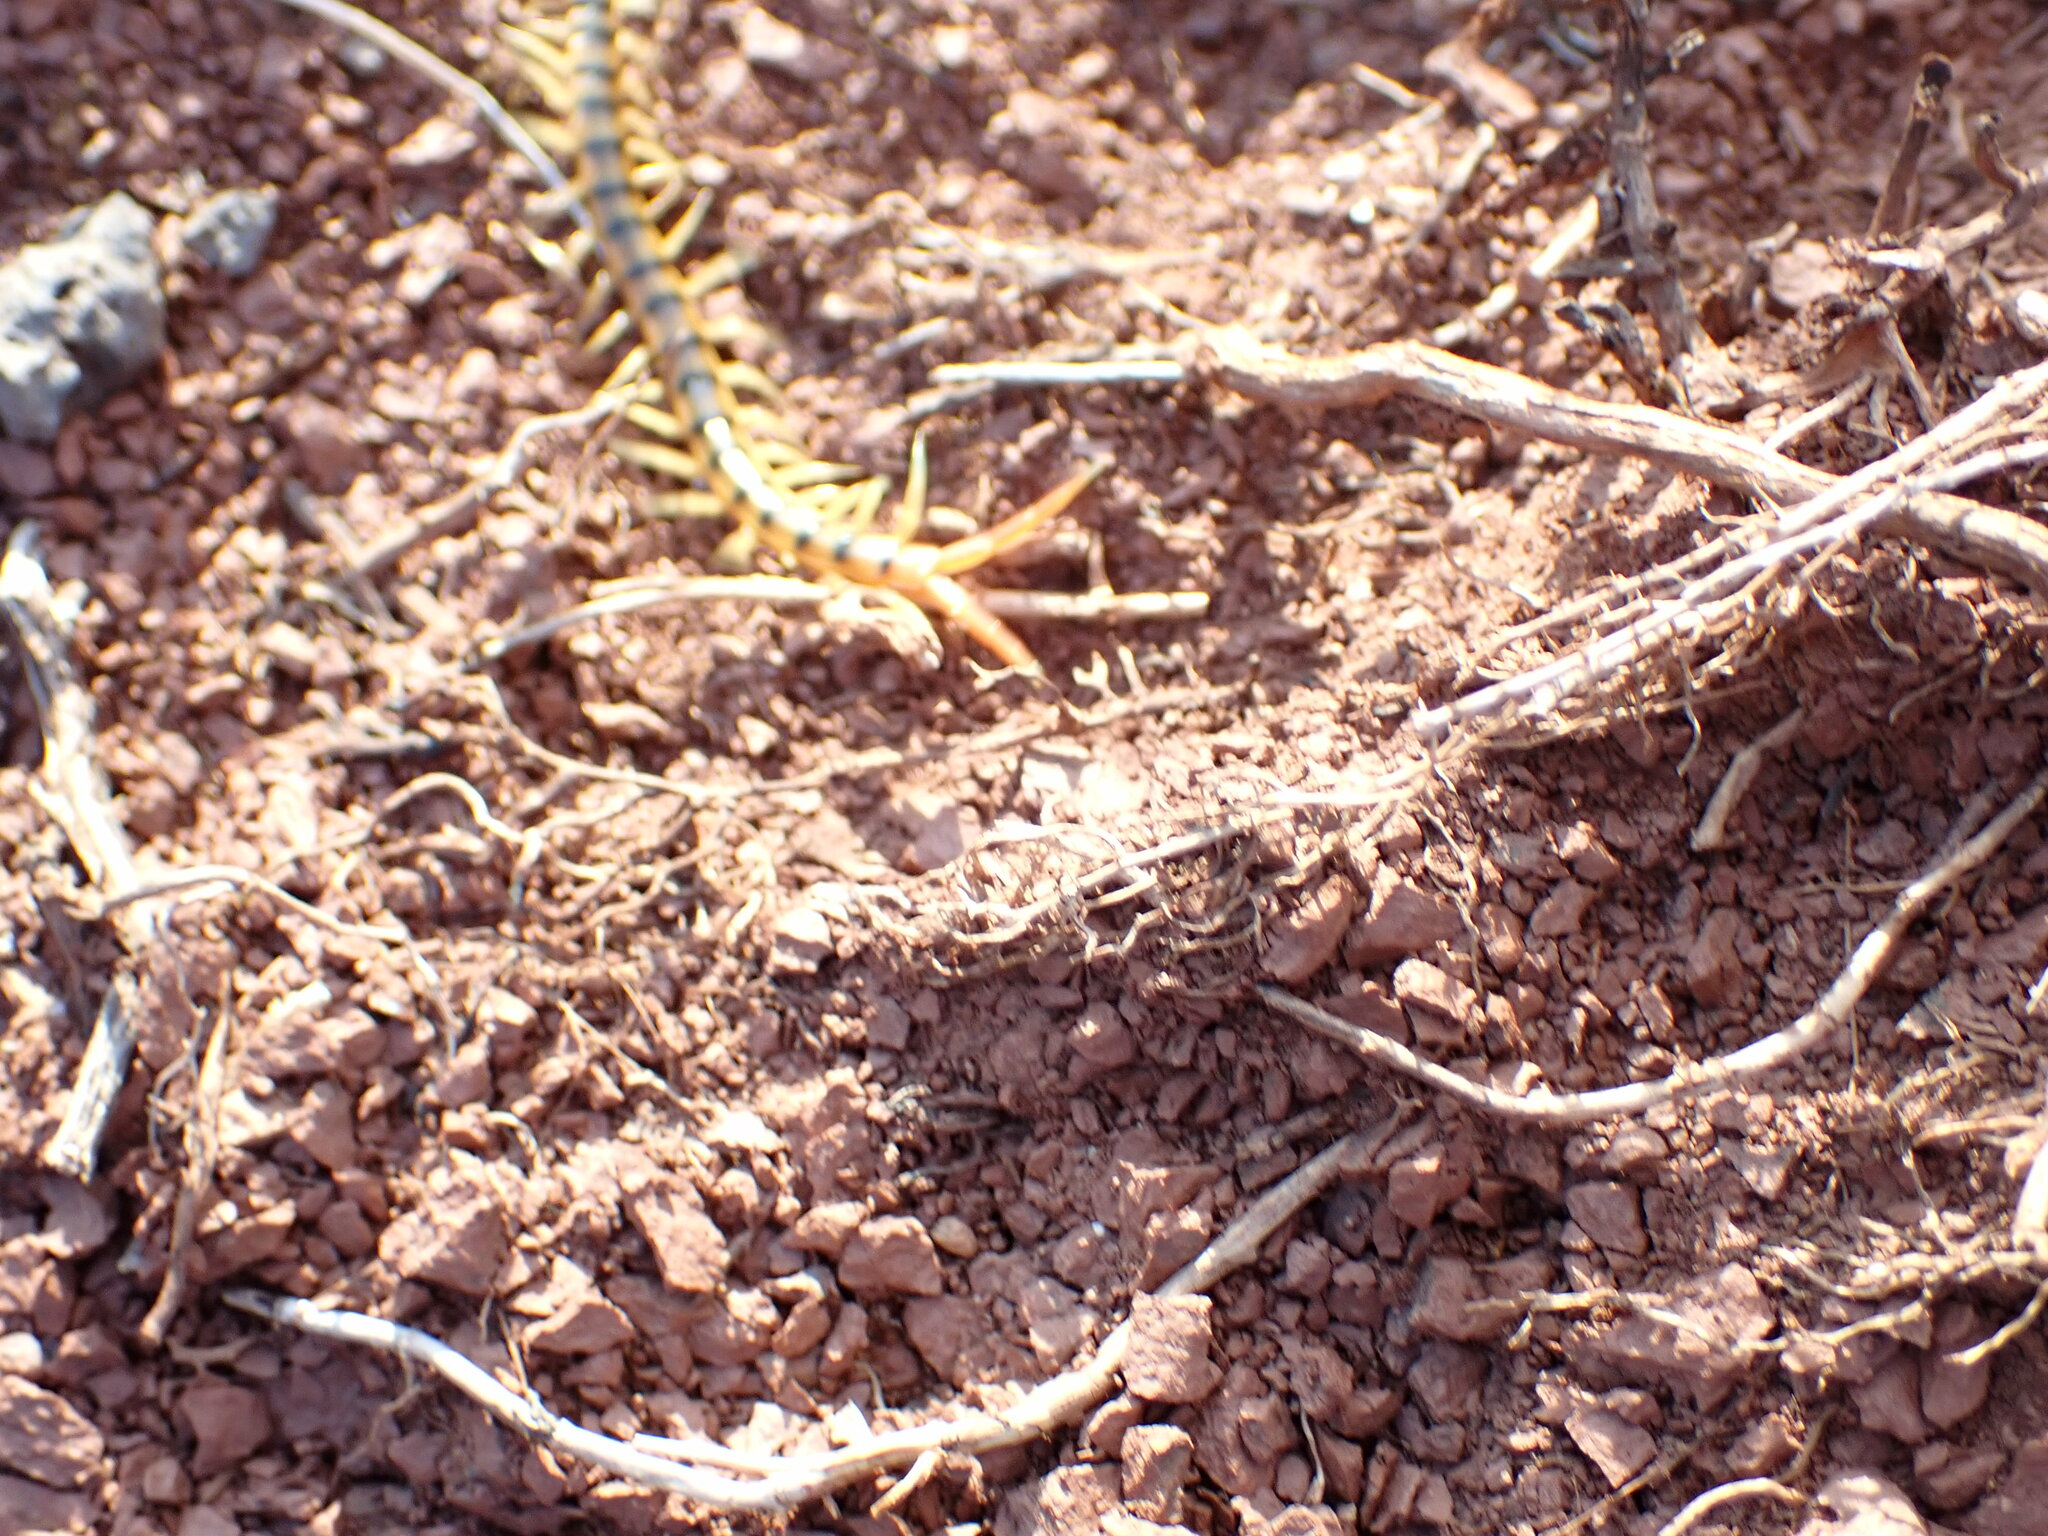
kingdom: Animalia
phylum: Arthropoda
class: Chilopoda
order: Scolopendromorpha
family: Scolopendridae
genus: Scolopendra
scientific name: Scolopendra cingulata
